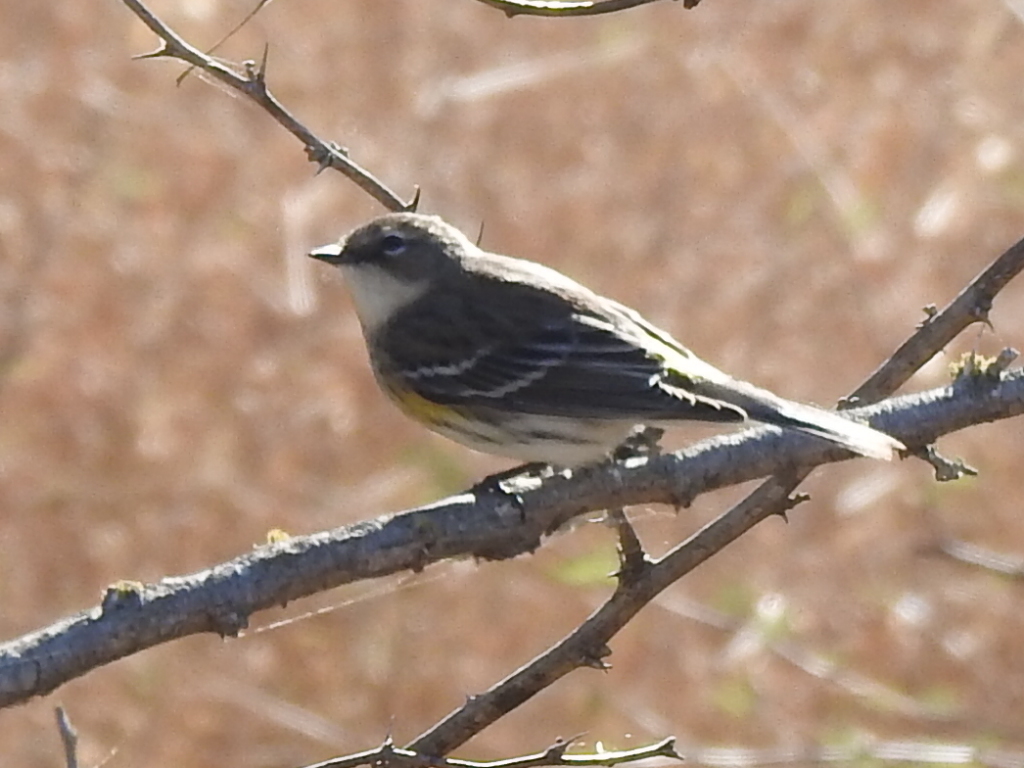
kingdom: Animalia
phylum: Chordata
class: Aves
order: Passeriformes
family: Parulidae
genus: Setophaga
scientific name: Setophaga coronata
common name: Myrtle warbler
